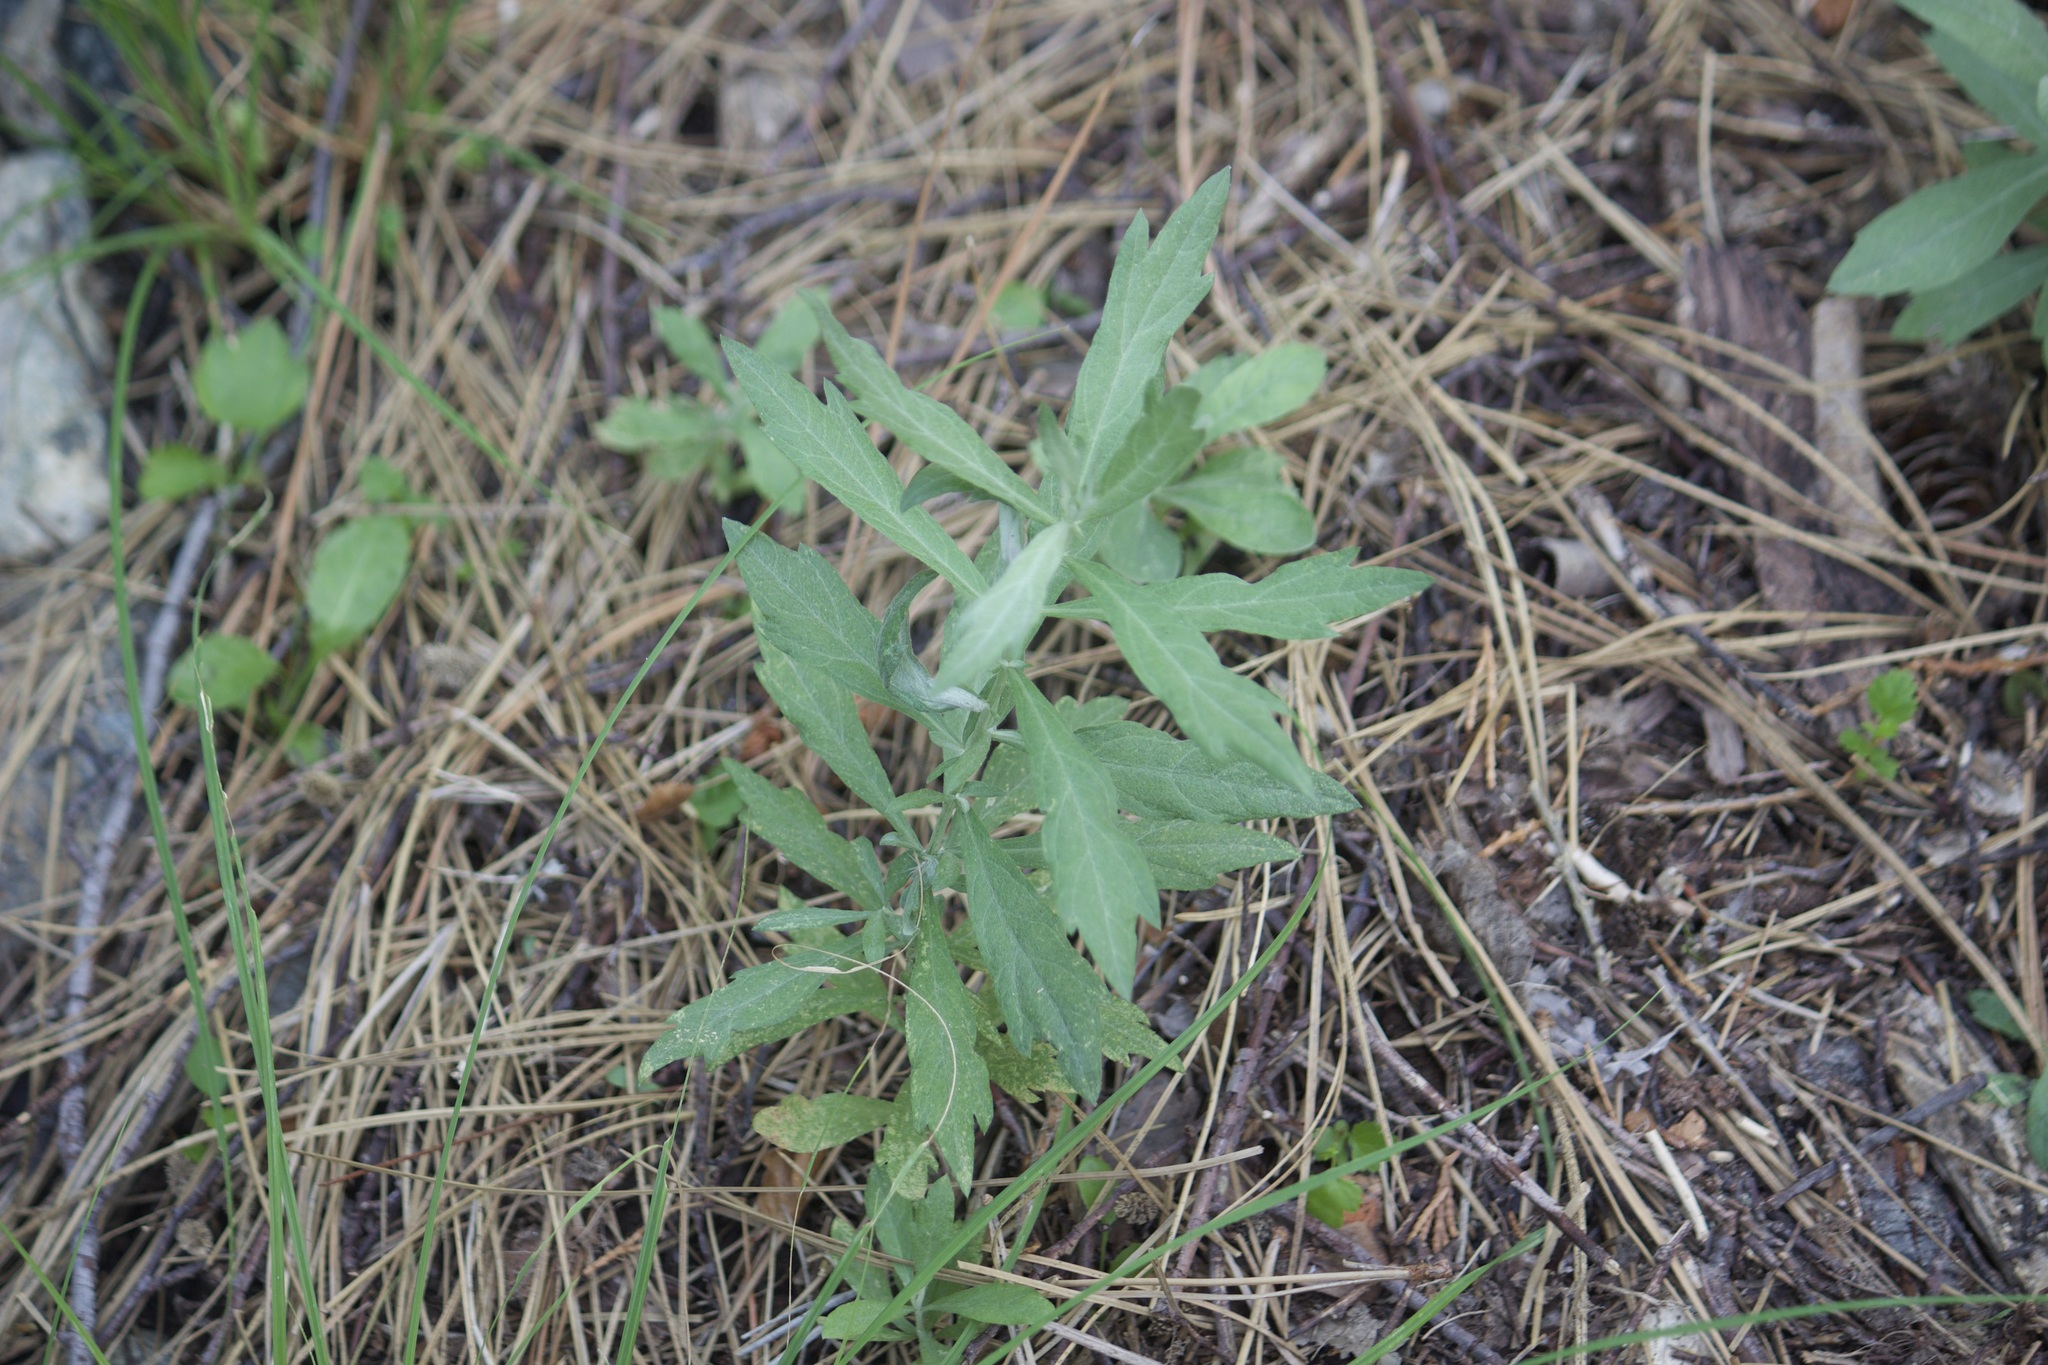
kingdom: Plantae
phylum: Tracheophyta
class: Magnoliopsida
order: Asterales
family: Asteraceae
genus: Artemisia
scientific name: Artemisia douglasiana
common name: Northwest mugwort
